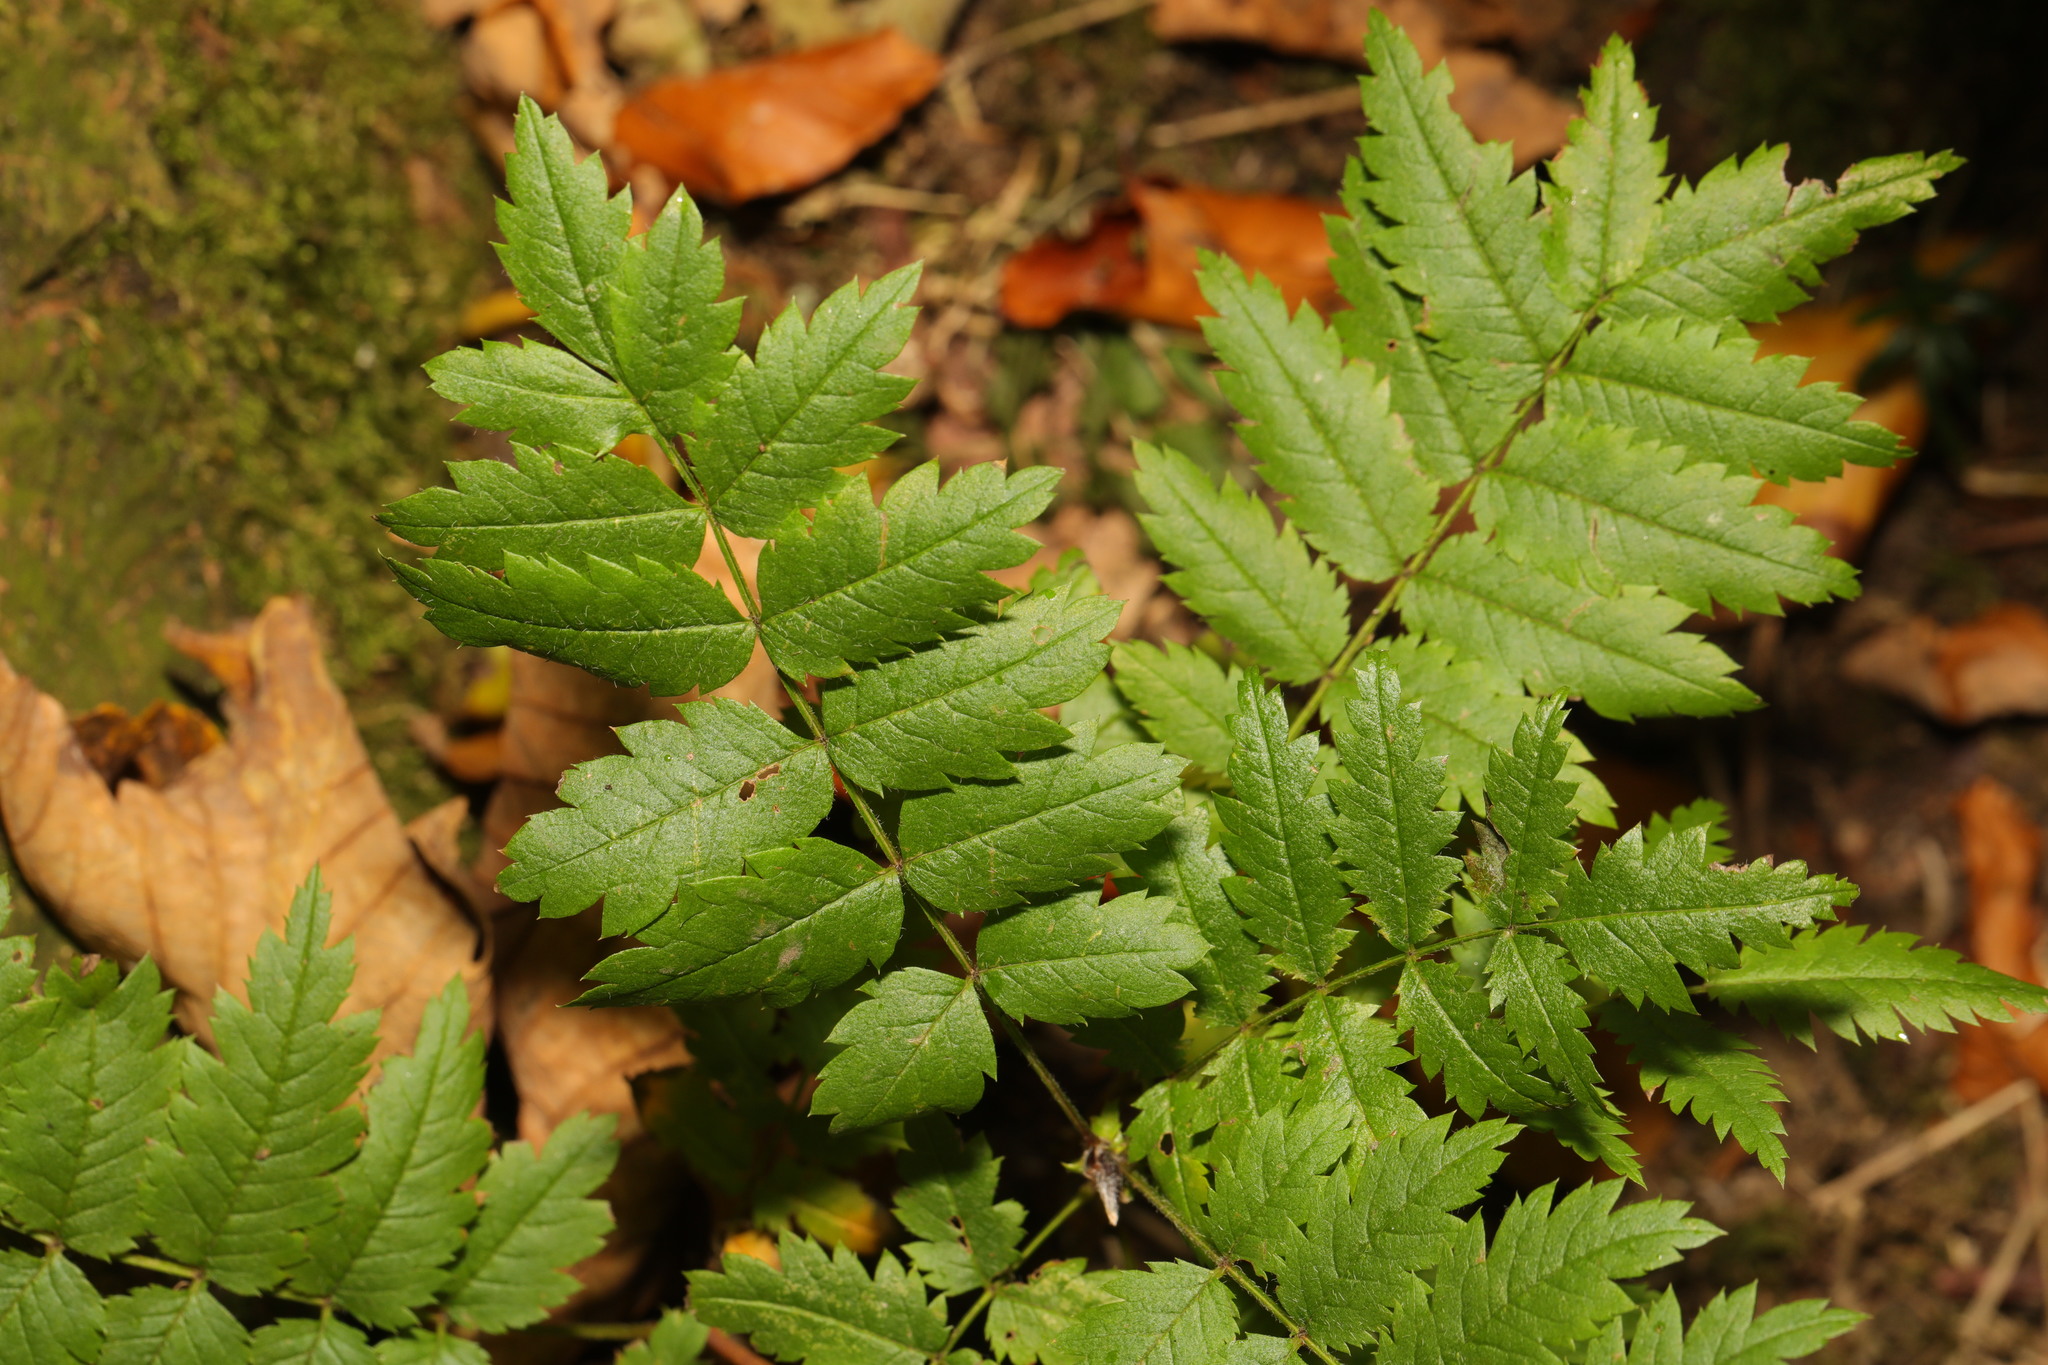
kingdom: Plantae
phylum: Tracheophyta
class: Magnoliopsida
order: Rosales
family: Rosaceae
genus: Sorbus
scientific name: Sorbus aucuparia
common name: Rowan
